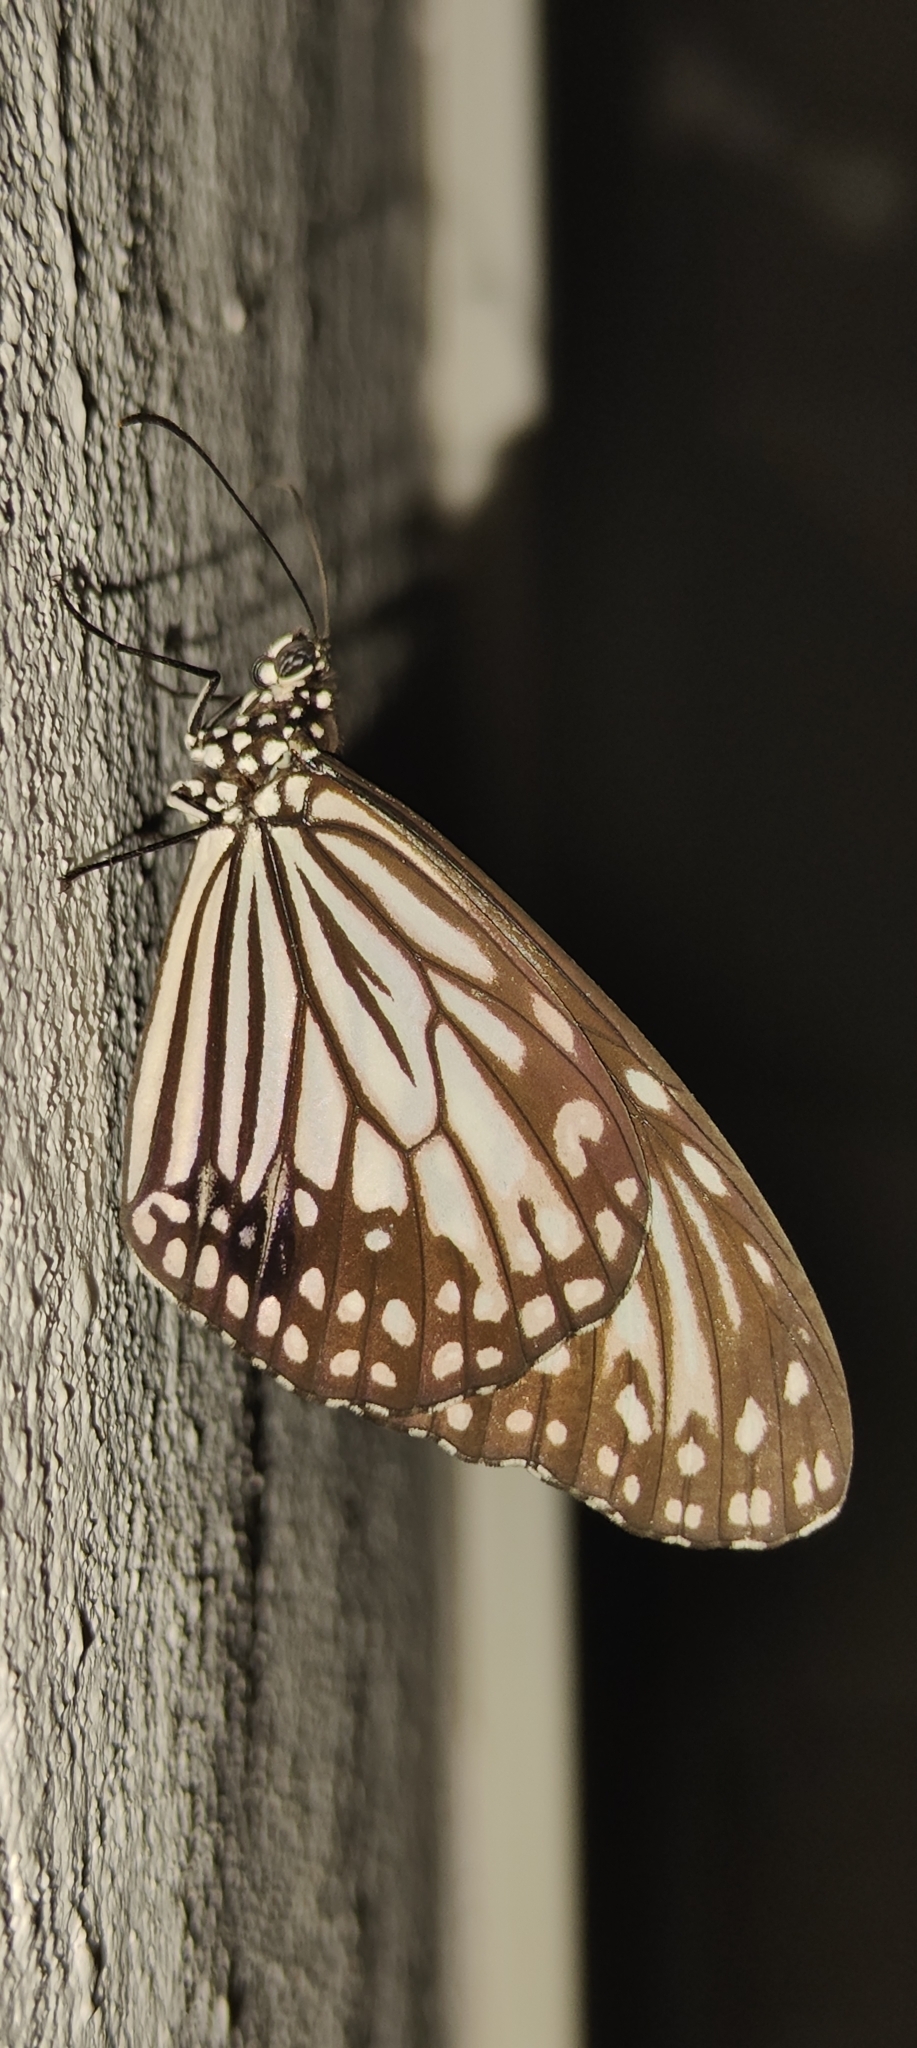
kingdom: Animalia
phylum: Arthropoda
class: Insecta
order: Lepidoptera
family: Nymphalidae
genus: Parantica
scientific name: Parantica aglea
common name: Glassy tiger
